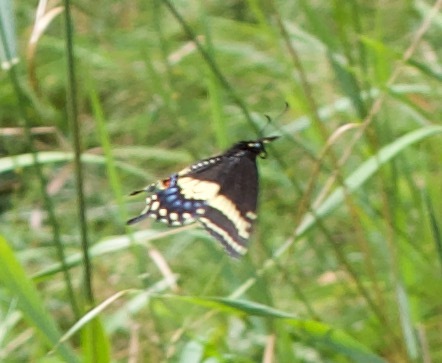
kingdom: Animalia
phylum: Arthropoda
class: Insecta
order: Lepidoptera
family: Papilionidae
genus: Papilio
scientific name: Papilio polyxenes
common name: Black swallowtail
